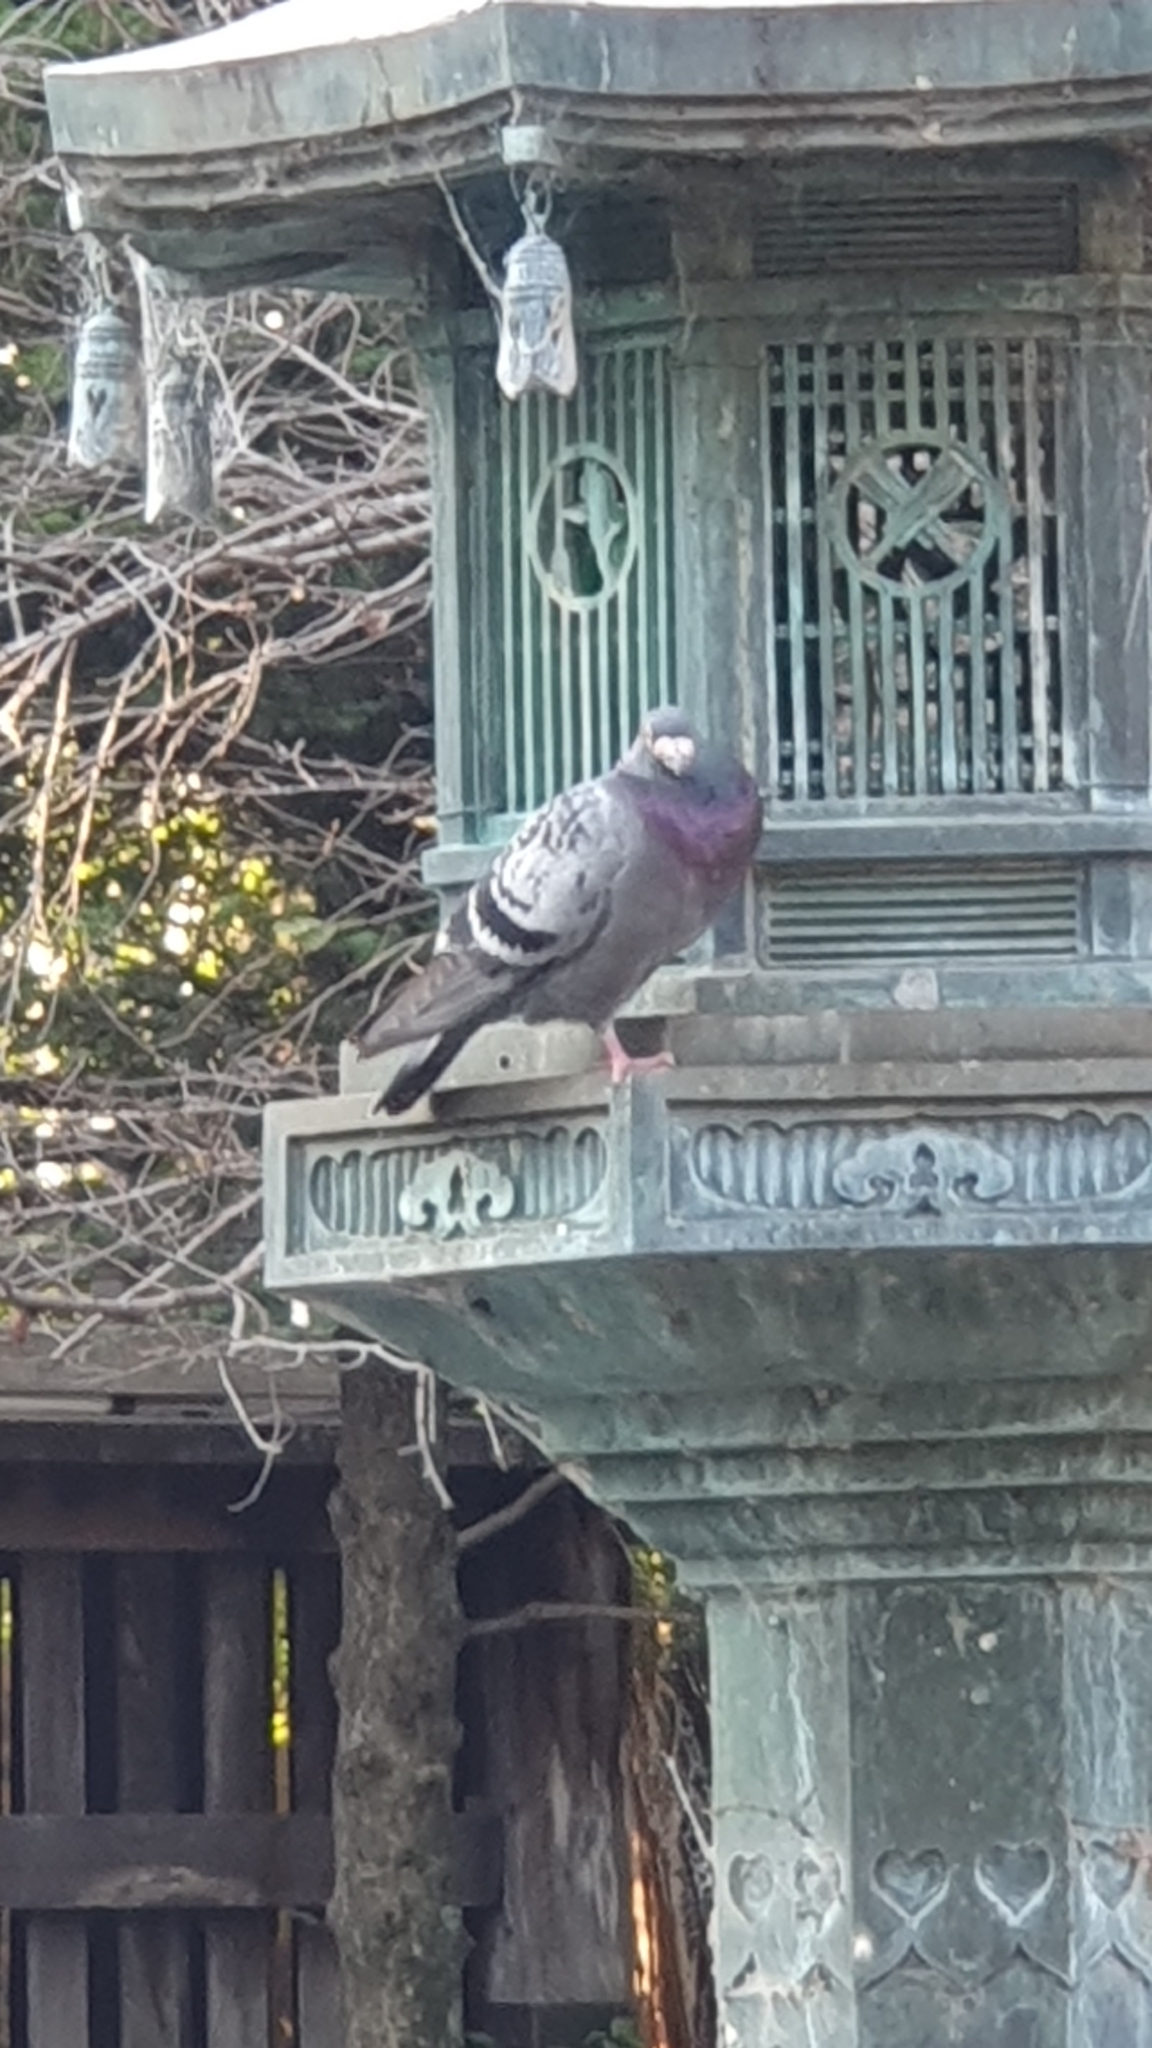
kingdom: Animalia
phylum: Chordata
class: Aves
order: Columbiformes
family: Columbidae
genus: Columba
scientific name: Columba livia
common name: Rock pigeon
